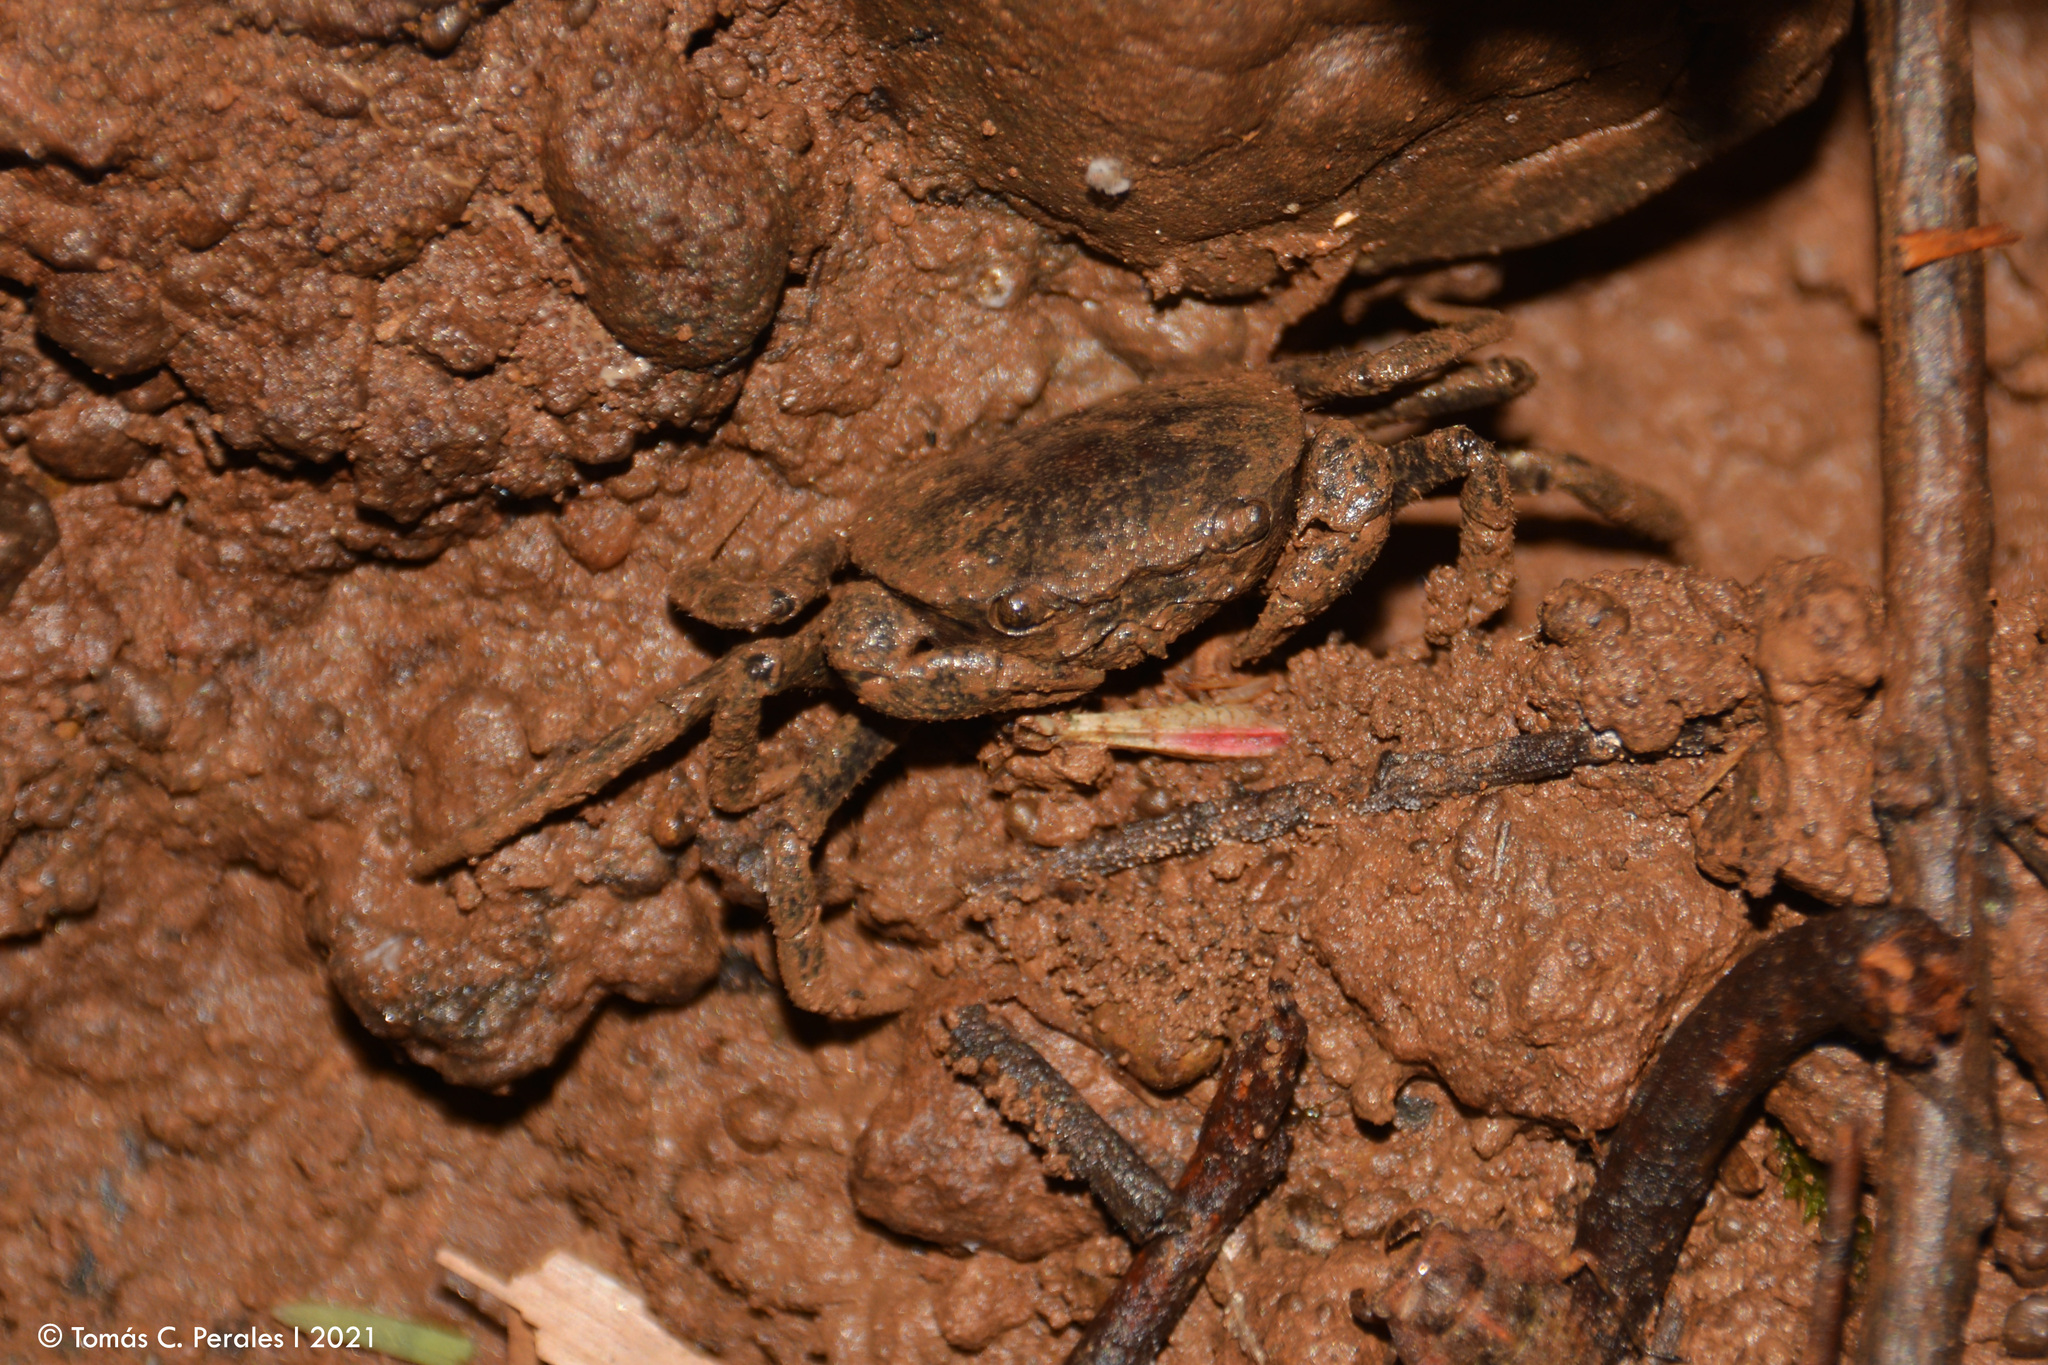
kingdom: Animalia
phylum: Arthropoda
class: Malacostraca
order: Decapoda
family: Trichodactylidae
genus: Trichodactylus
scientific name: Trichodactylus kensleyi
